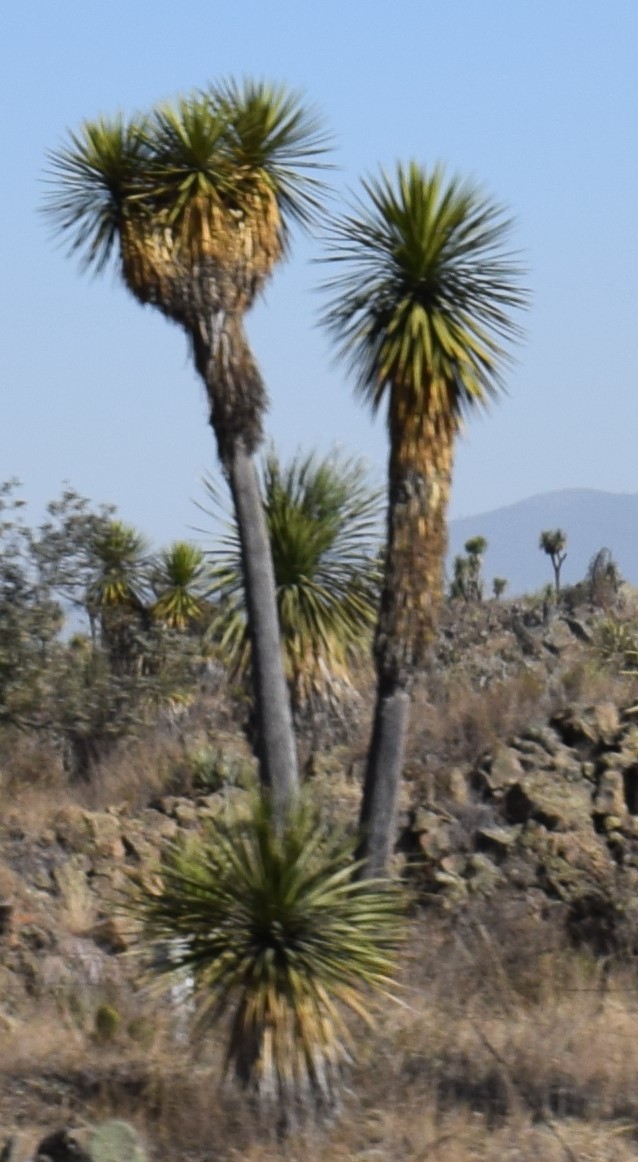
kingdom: Plantae
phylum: Tracheophyta
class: Liliopsida
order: Asparagales
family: Asparagaceae
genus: Yucca
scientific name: Yucca periculosa
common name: Izote yucca
